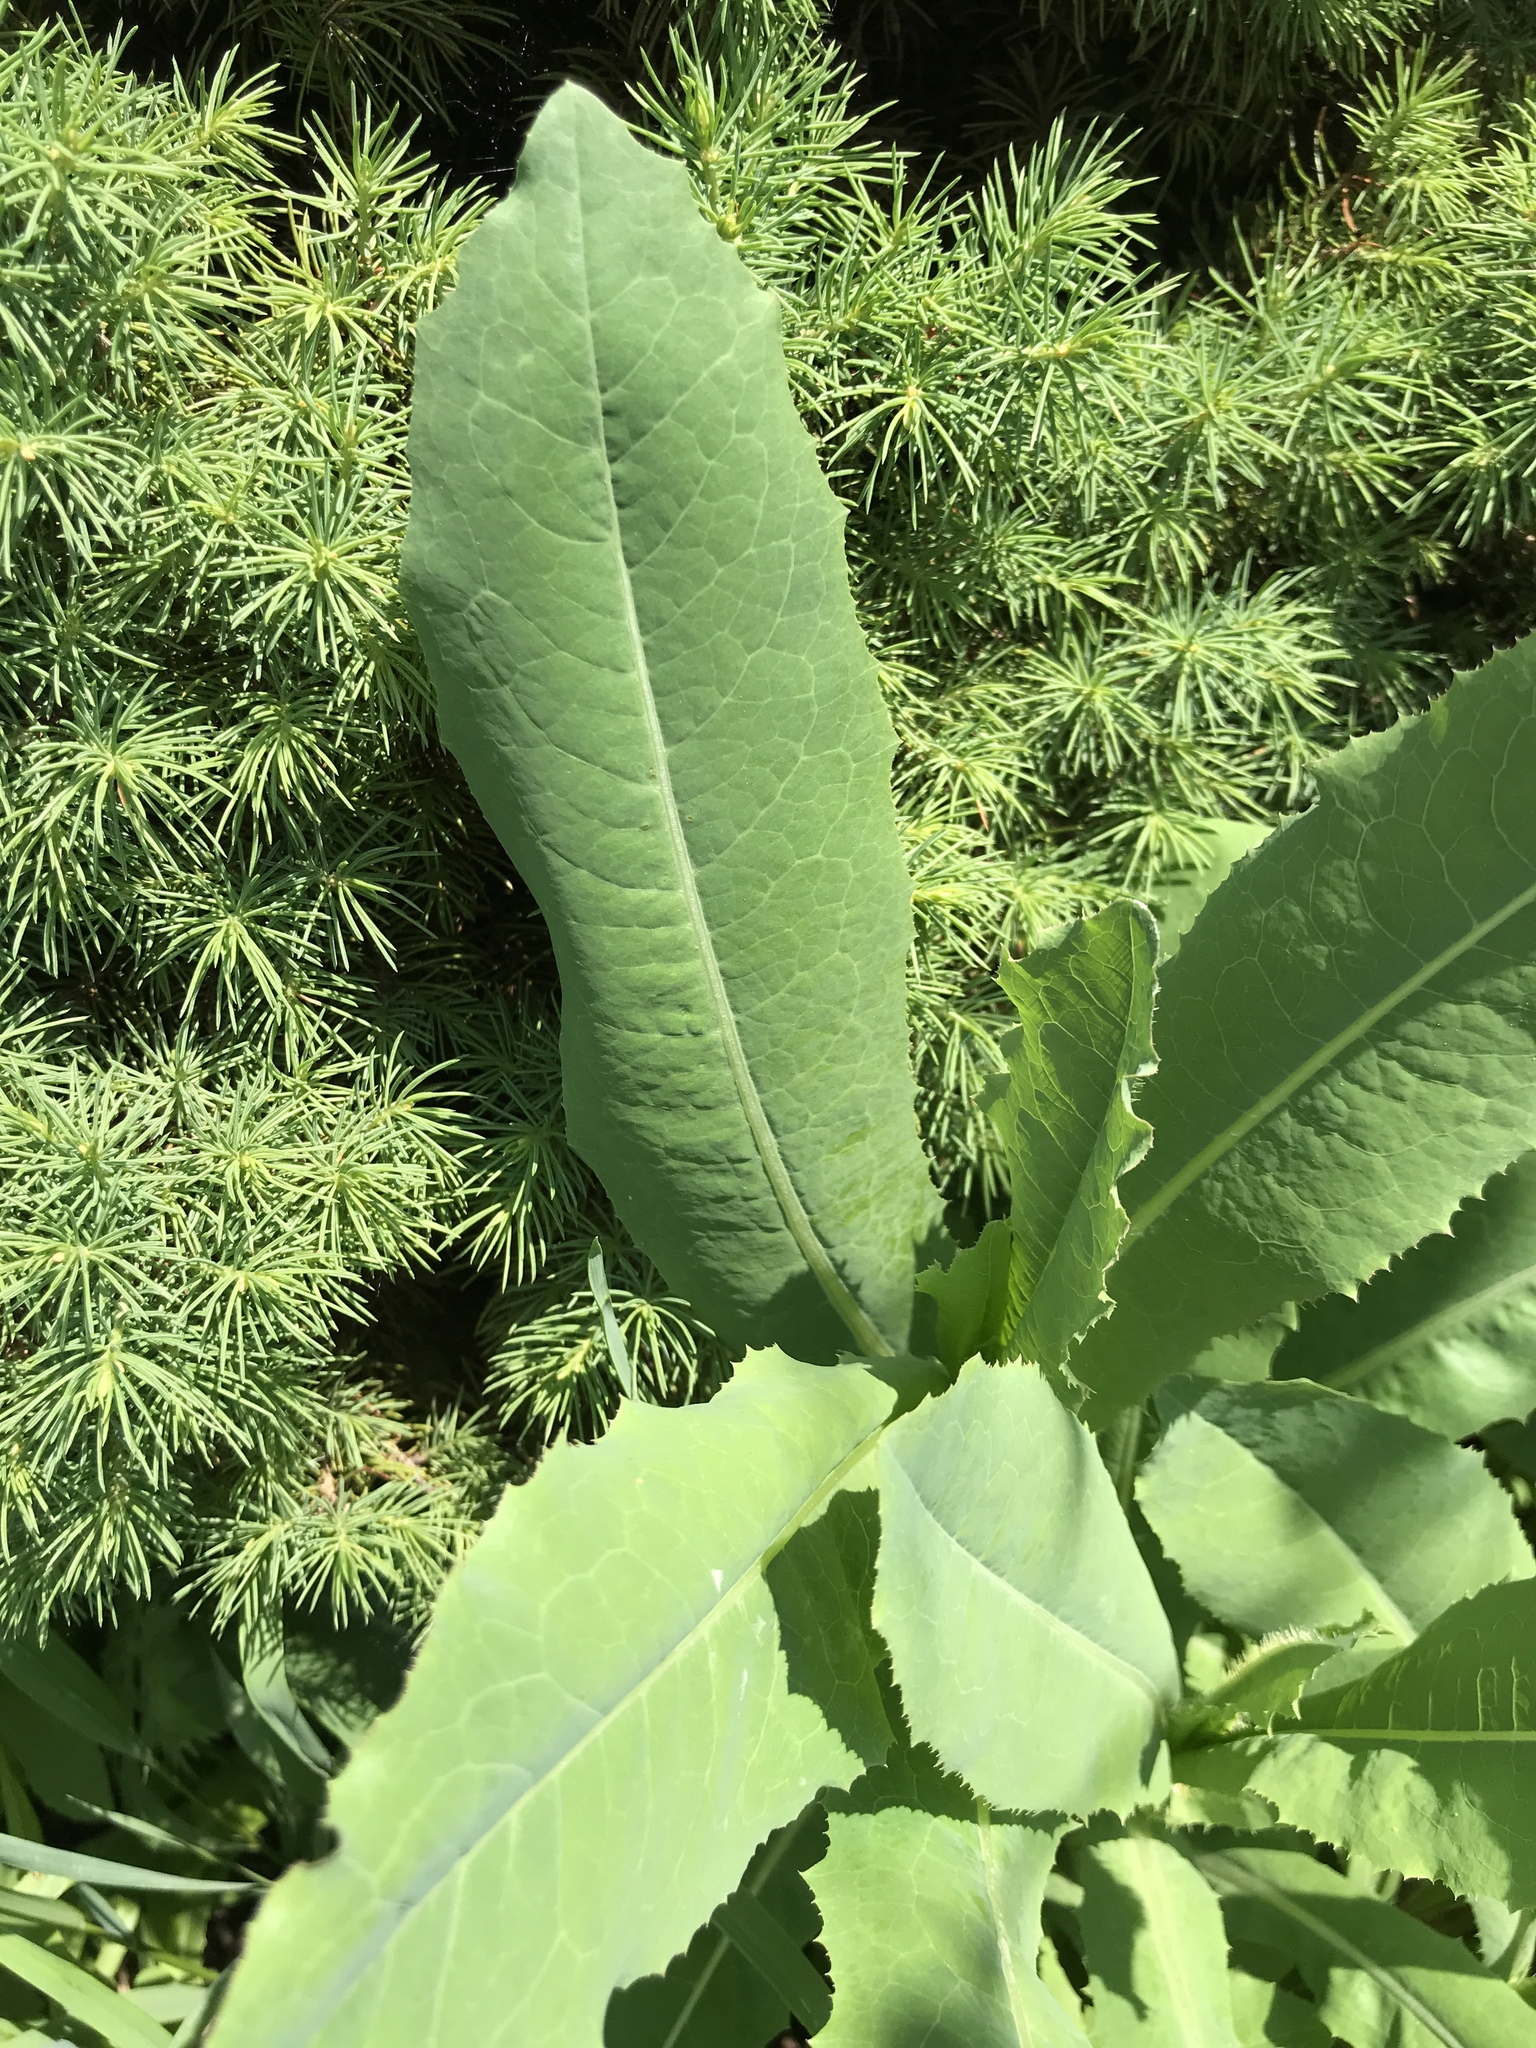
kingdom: Plantae
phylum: Tracheophyta
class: Magnoliopsida
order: Asterales
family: Asteraceae
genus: Lactuca
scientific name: Lactuca serriola
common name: Prickly lettuce
